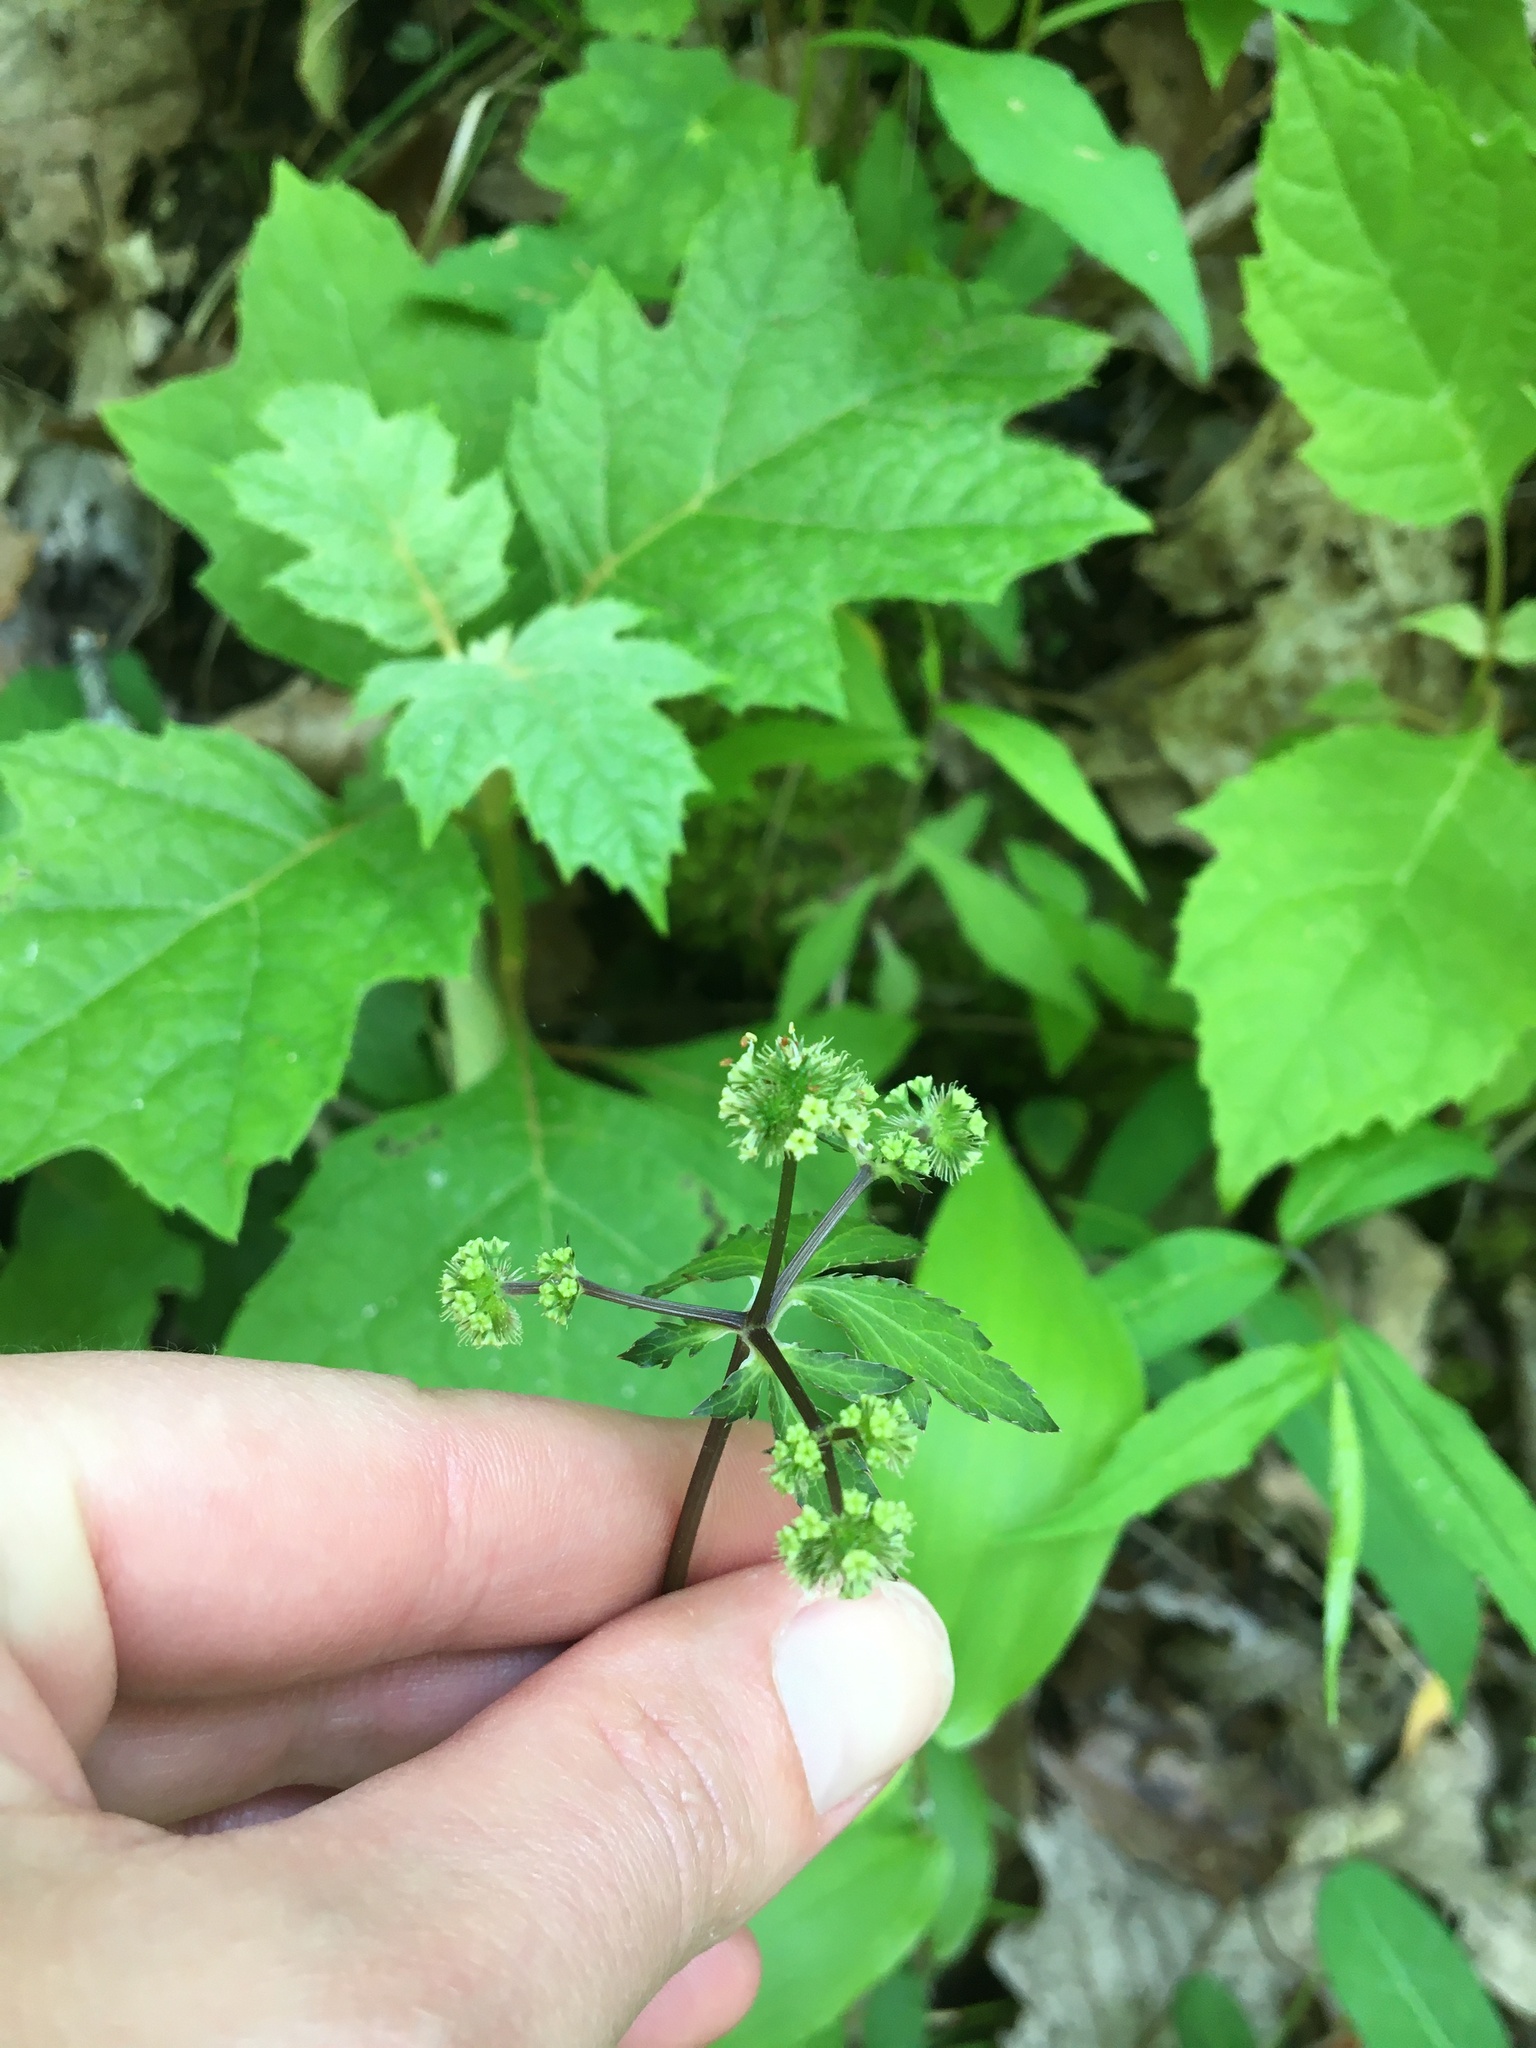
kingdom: Plantae
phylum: Tracheophyta
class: Magnoliopsida
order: Apiales
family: Apiaceae
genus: Sanicula
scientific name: Sanicula smallii
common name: Small's black snakeroot
